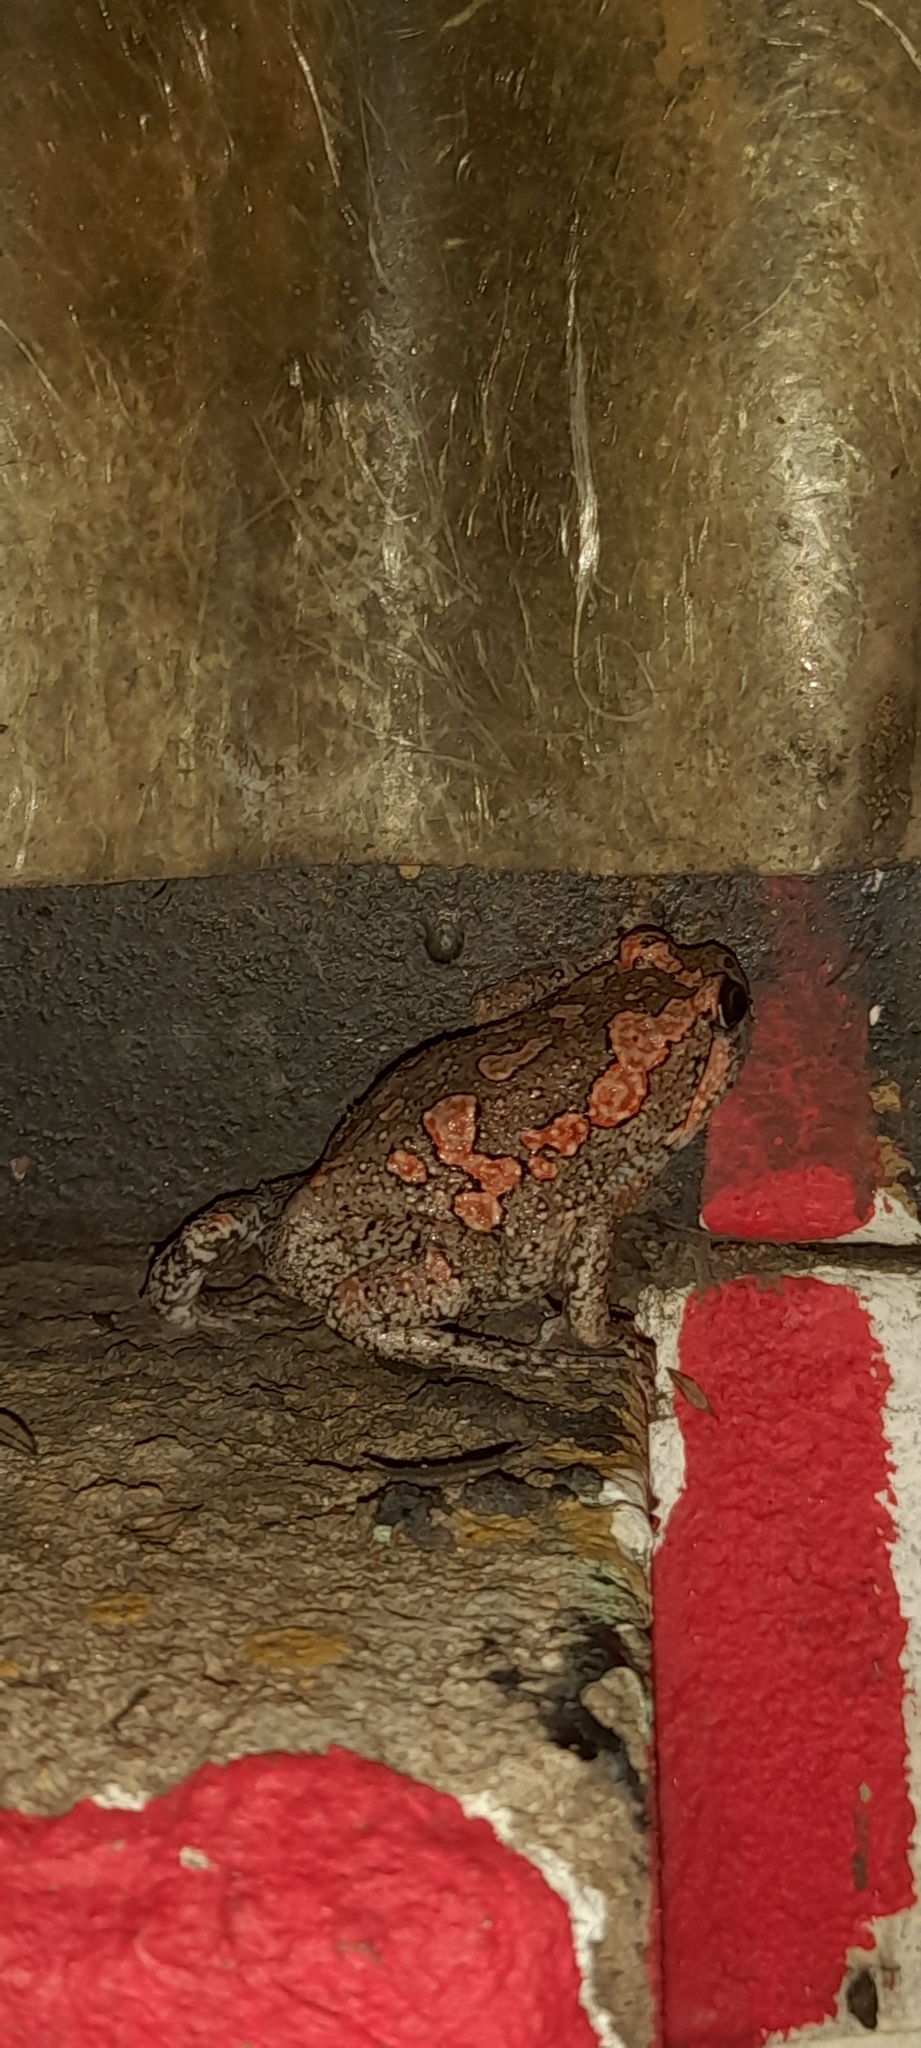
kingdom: Animalia
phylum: Chordata
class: Amphibia
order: Anura
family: Microhylidae
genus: Uperodon
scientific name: Uperodon taprobanicus
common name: Ceylon kaloula
